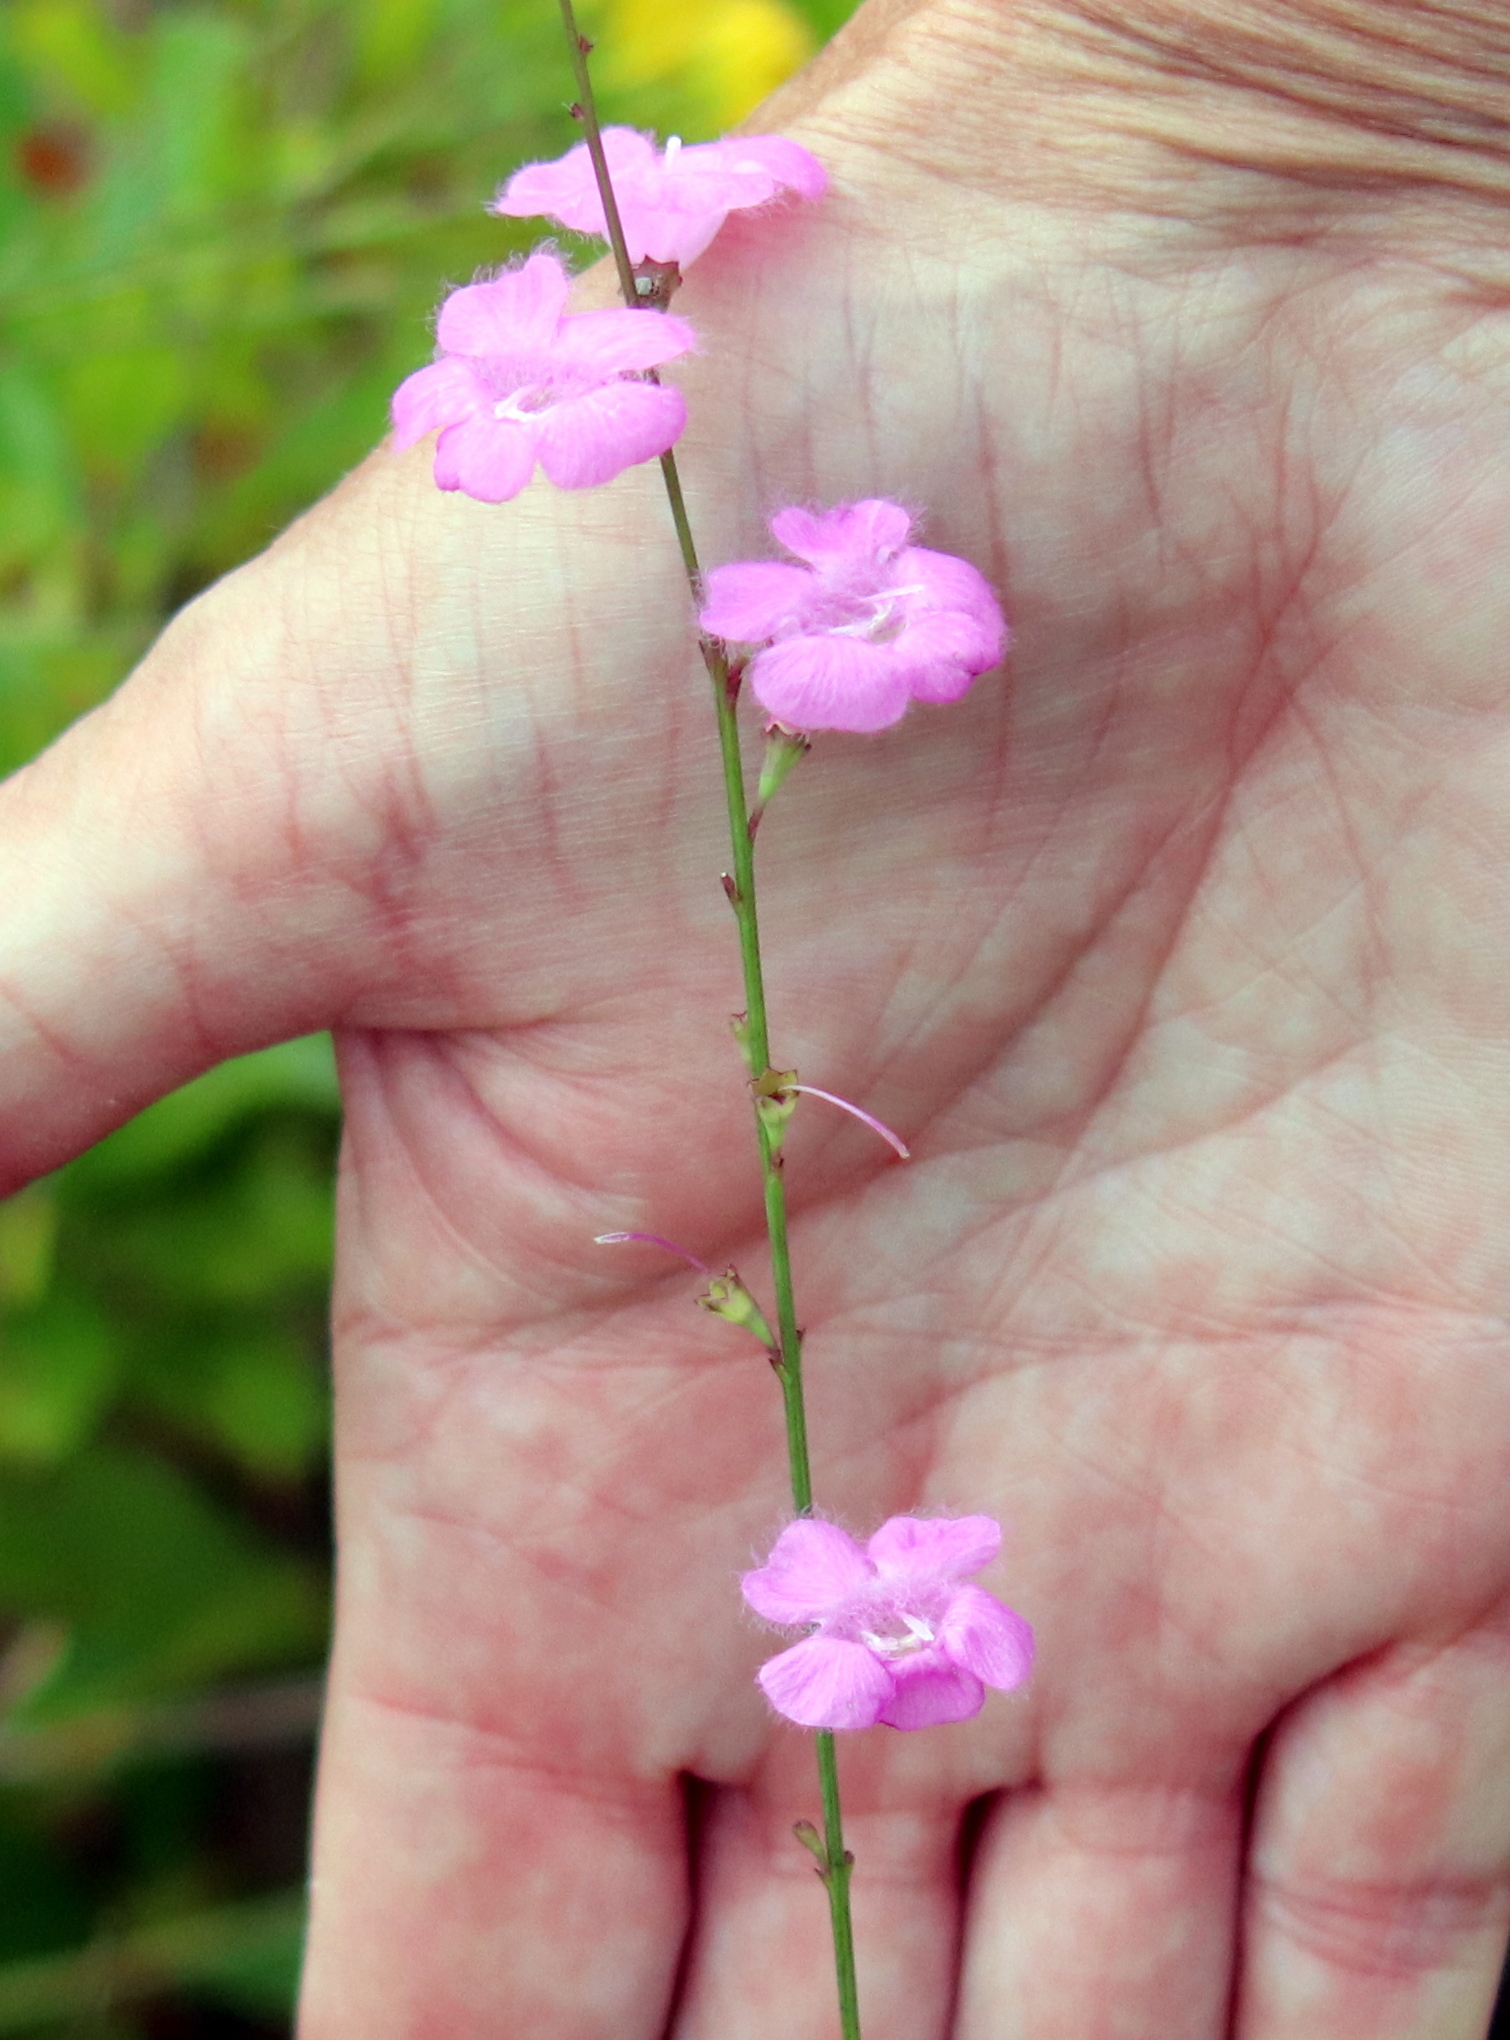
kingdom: Plantae
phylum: Tracheophyta
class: Magnoliopsida
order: Lamiales
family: Orobanchaceae
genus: Agalinis
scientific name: Agalinis aphylla
